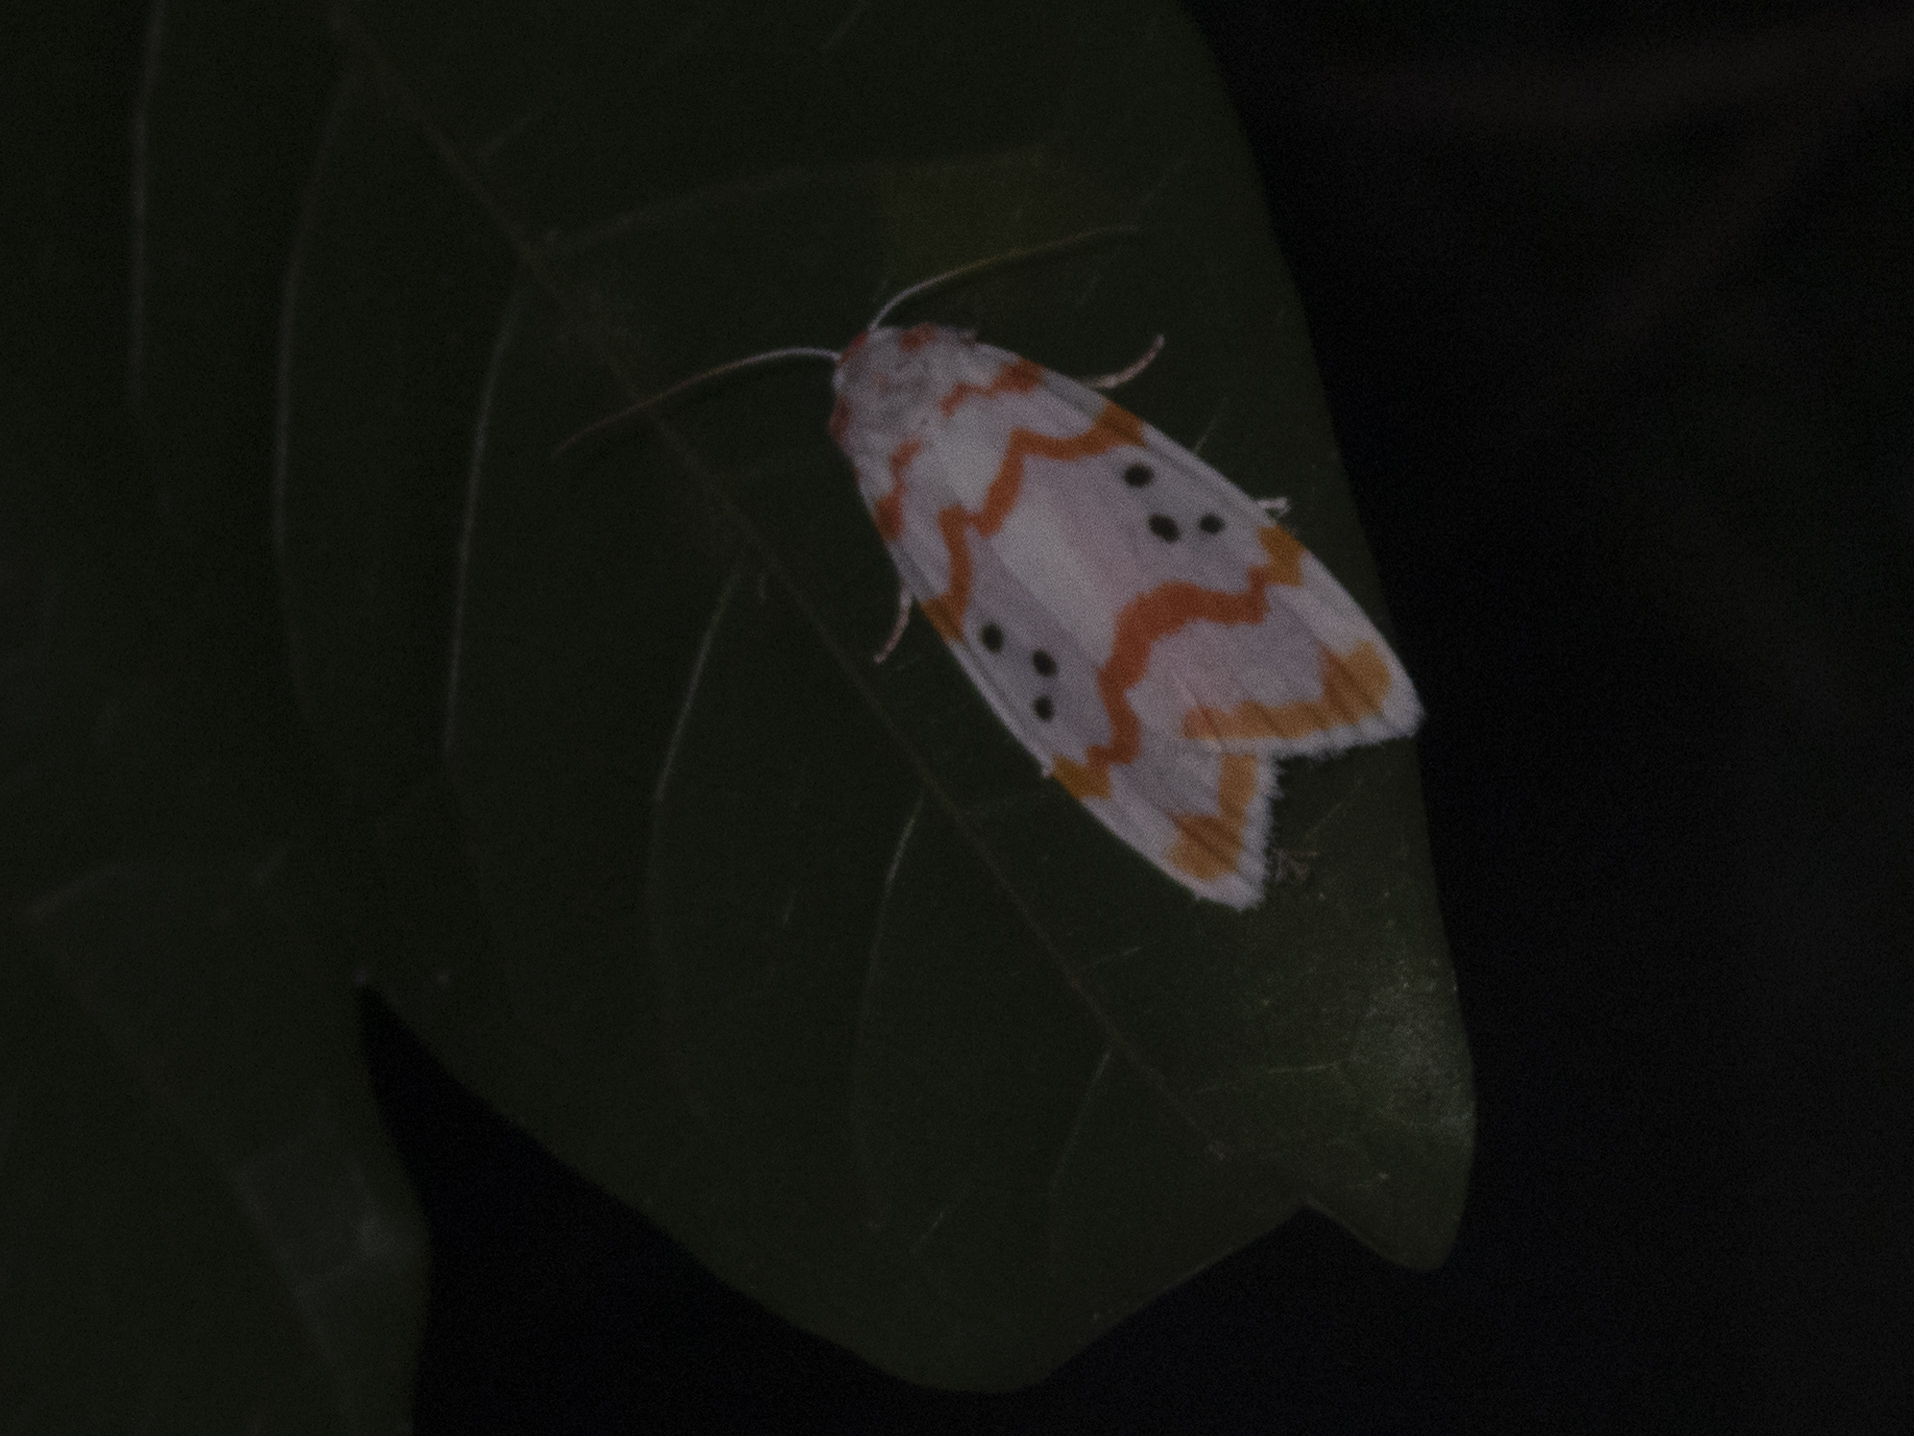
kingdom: Animalia
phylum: Arthropoda
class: Insecta
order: Lepidoptera
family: Erebidae
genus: Cyana
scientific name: Cyana interrogationis
